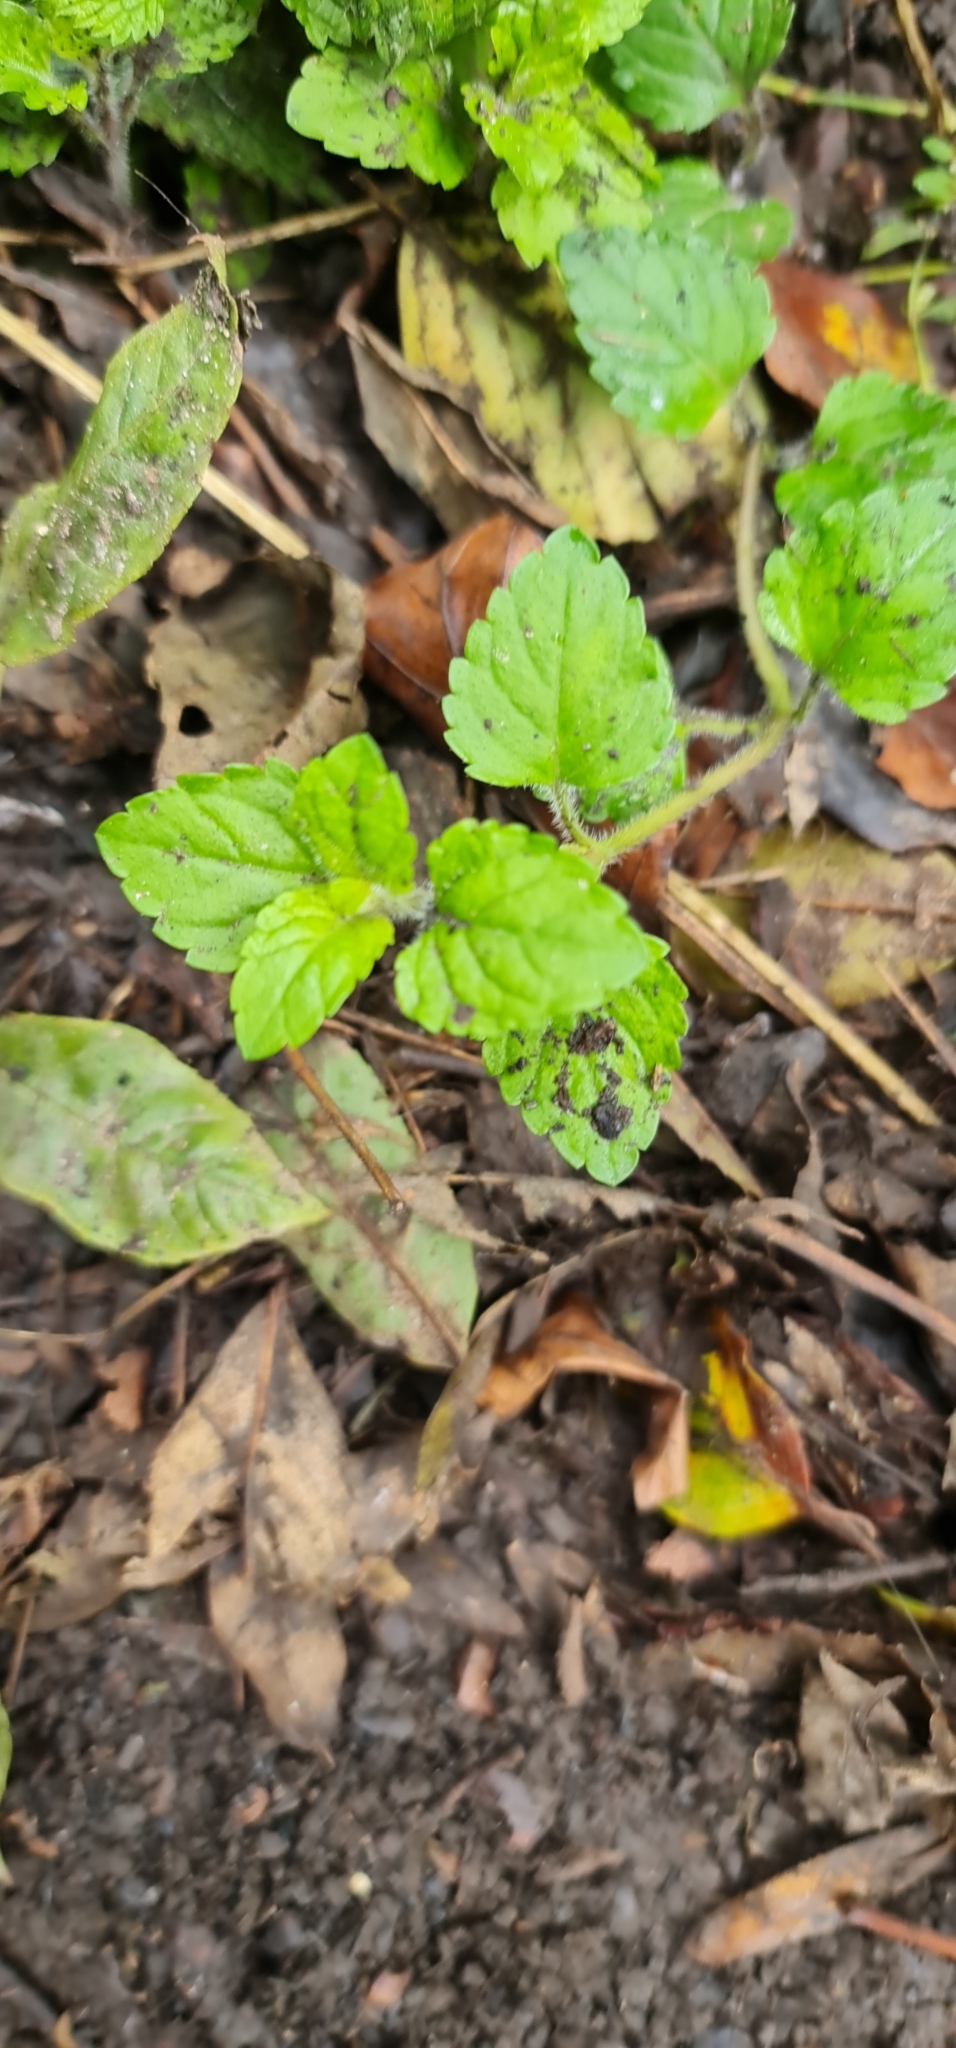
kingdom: Plantae
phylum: Tracheophyta
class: Magnoliopsida
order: Lamiales
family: Plantaginaceae
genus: Veronica
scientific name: Veronica montana
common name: Wood speedwell
